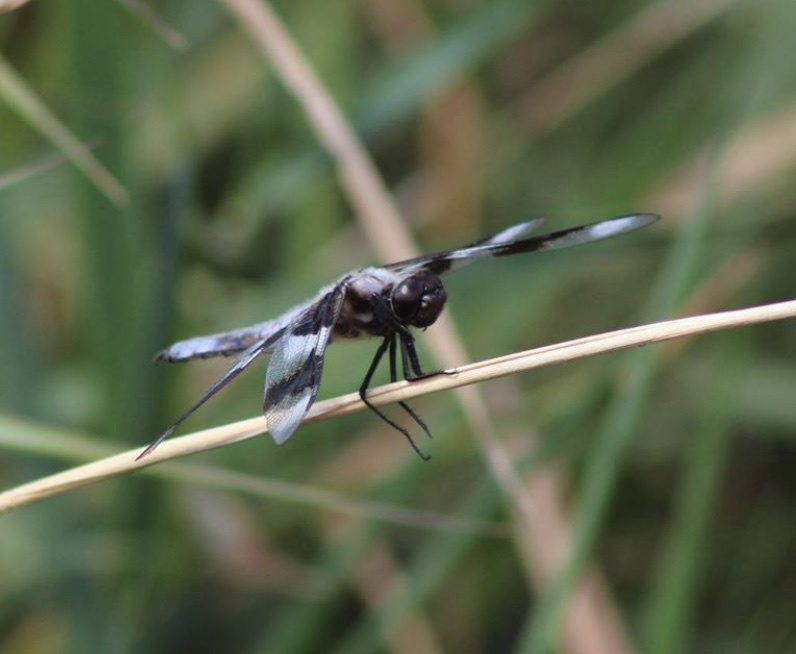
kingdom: Animalia
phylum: Arthropoda
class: Insecta
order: Odonata
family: Libellulidae
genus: Libellula
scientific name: Libellula forensis
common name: Eight-spotted skimmer
